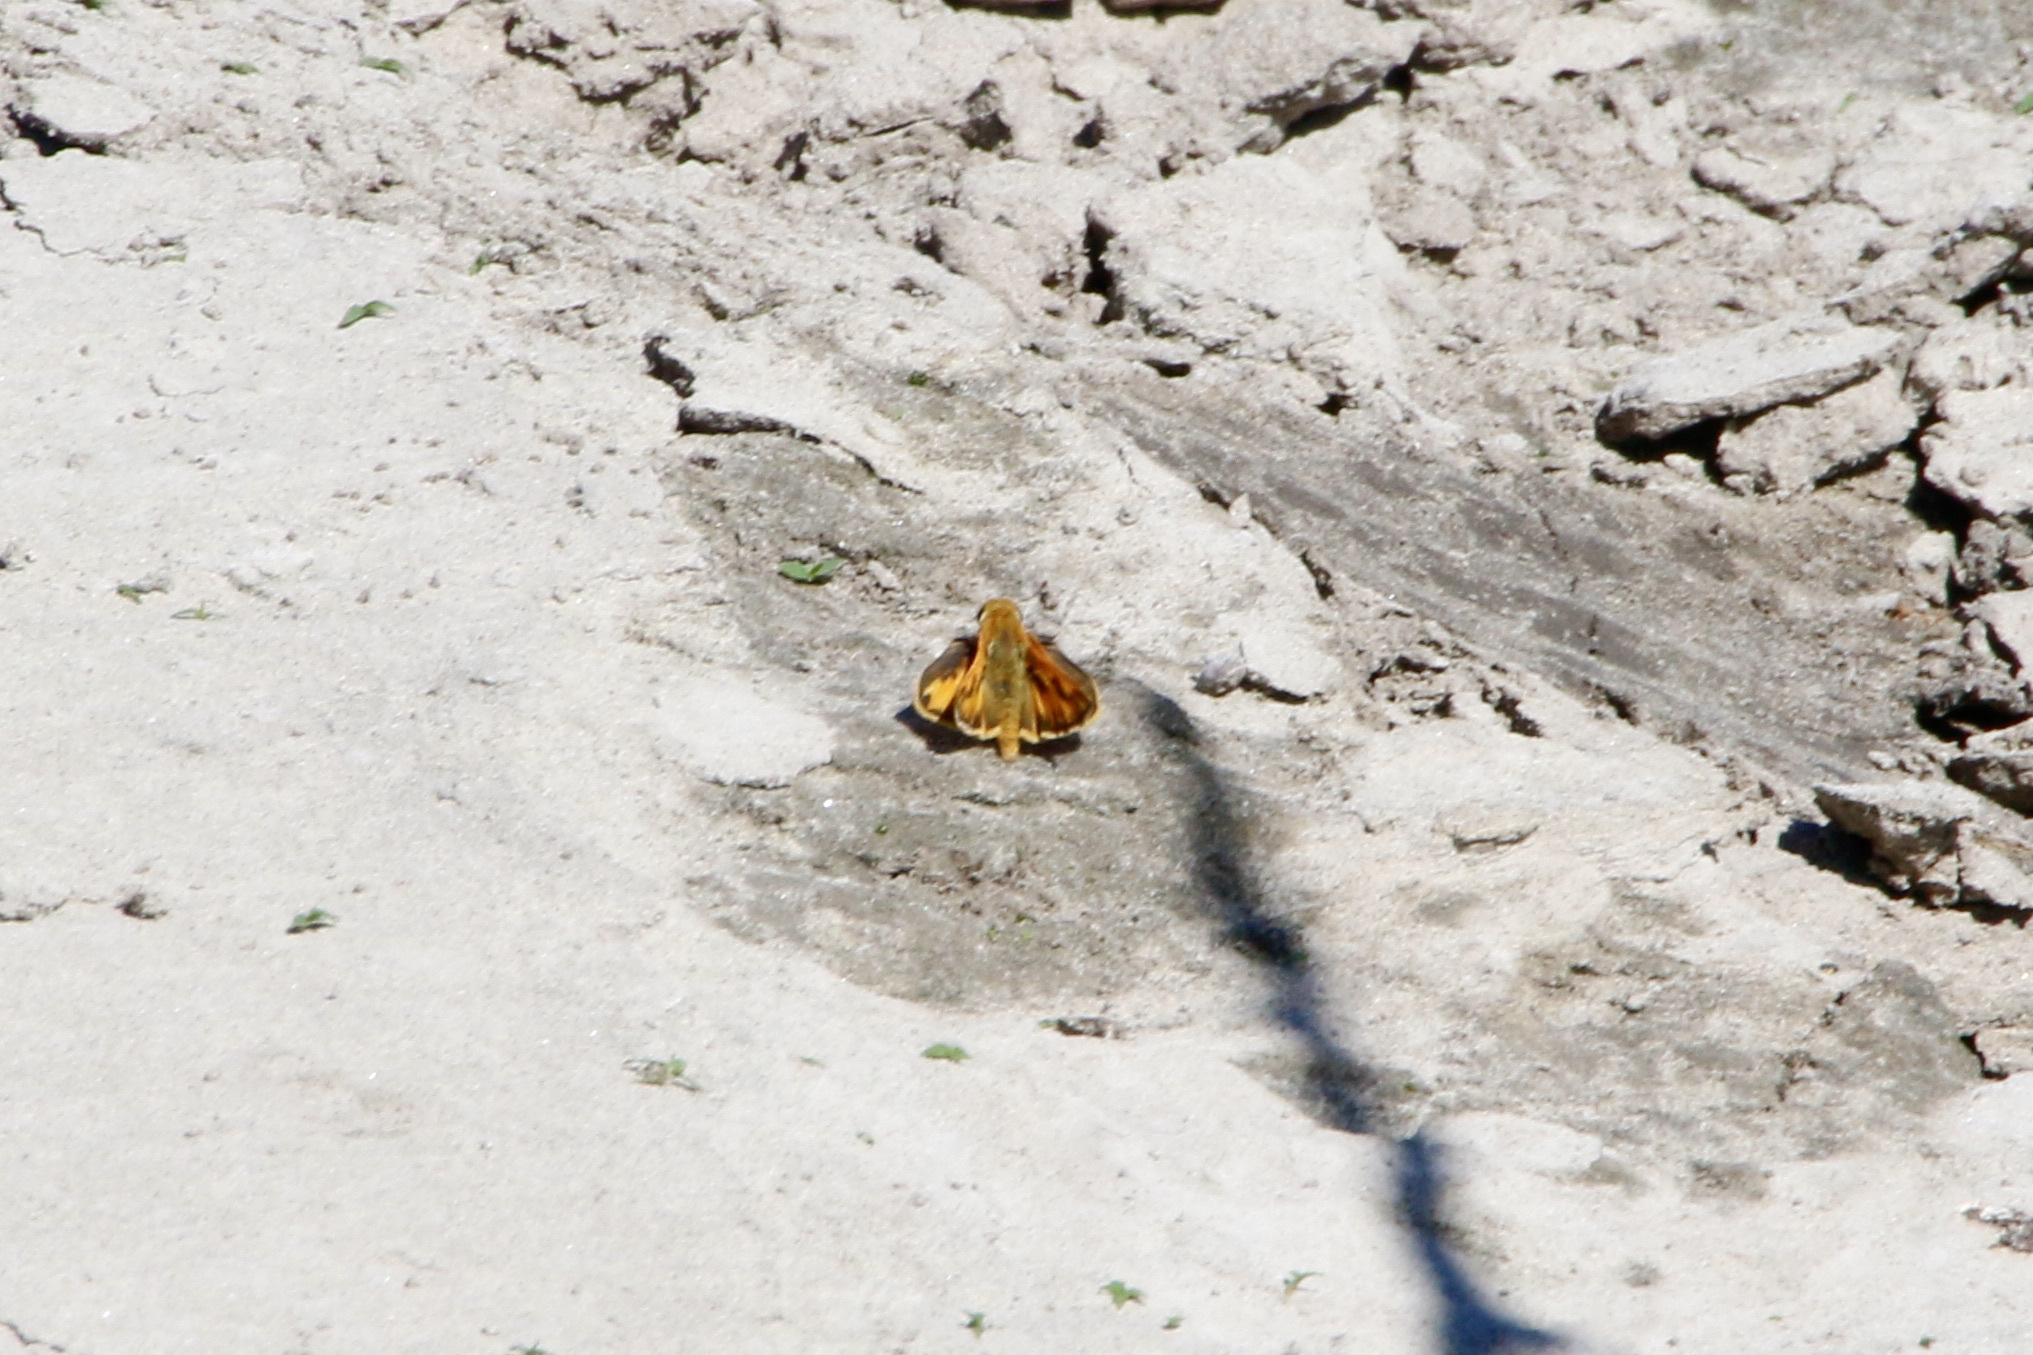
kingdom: Animalia
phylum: Arthropoda
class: Insecta
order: Lepidoptera
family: Hesperiidae
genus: Hylephila
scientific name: Hylephila phyleus
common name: Fiery skipper
